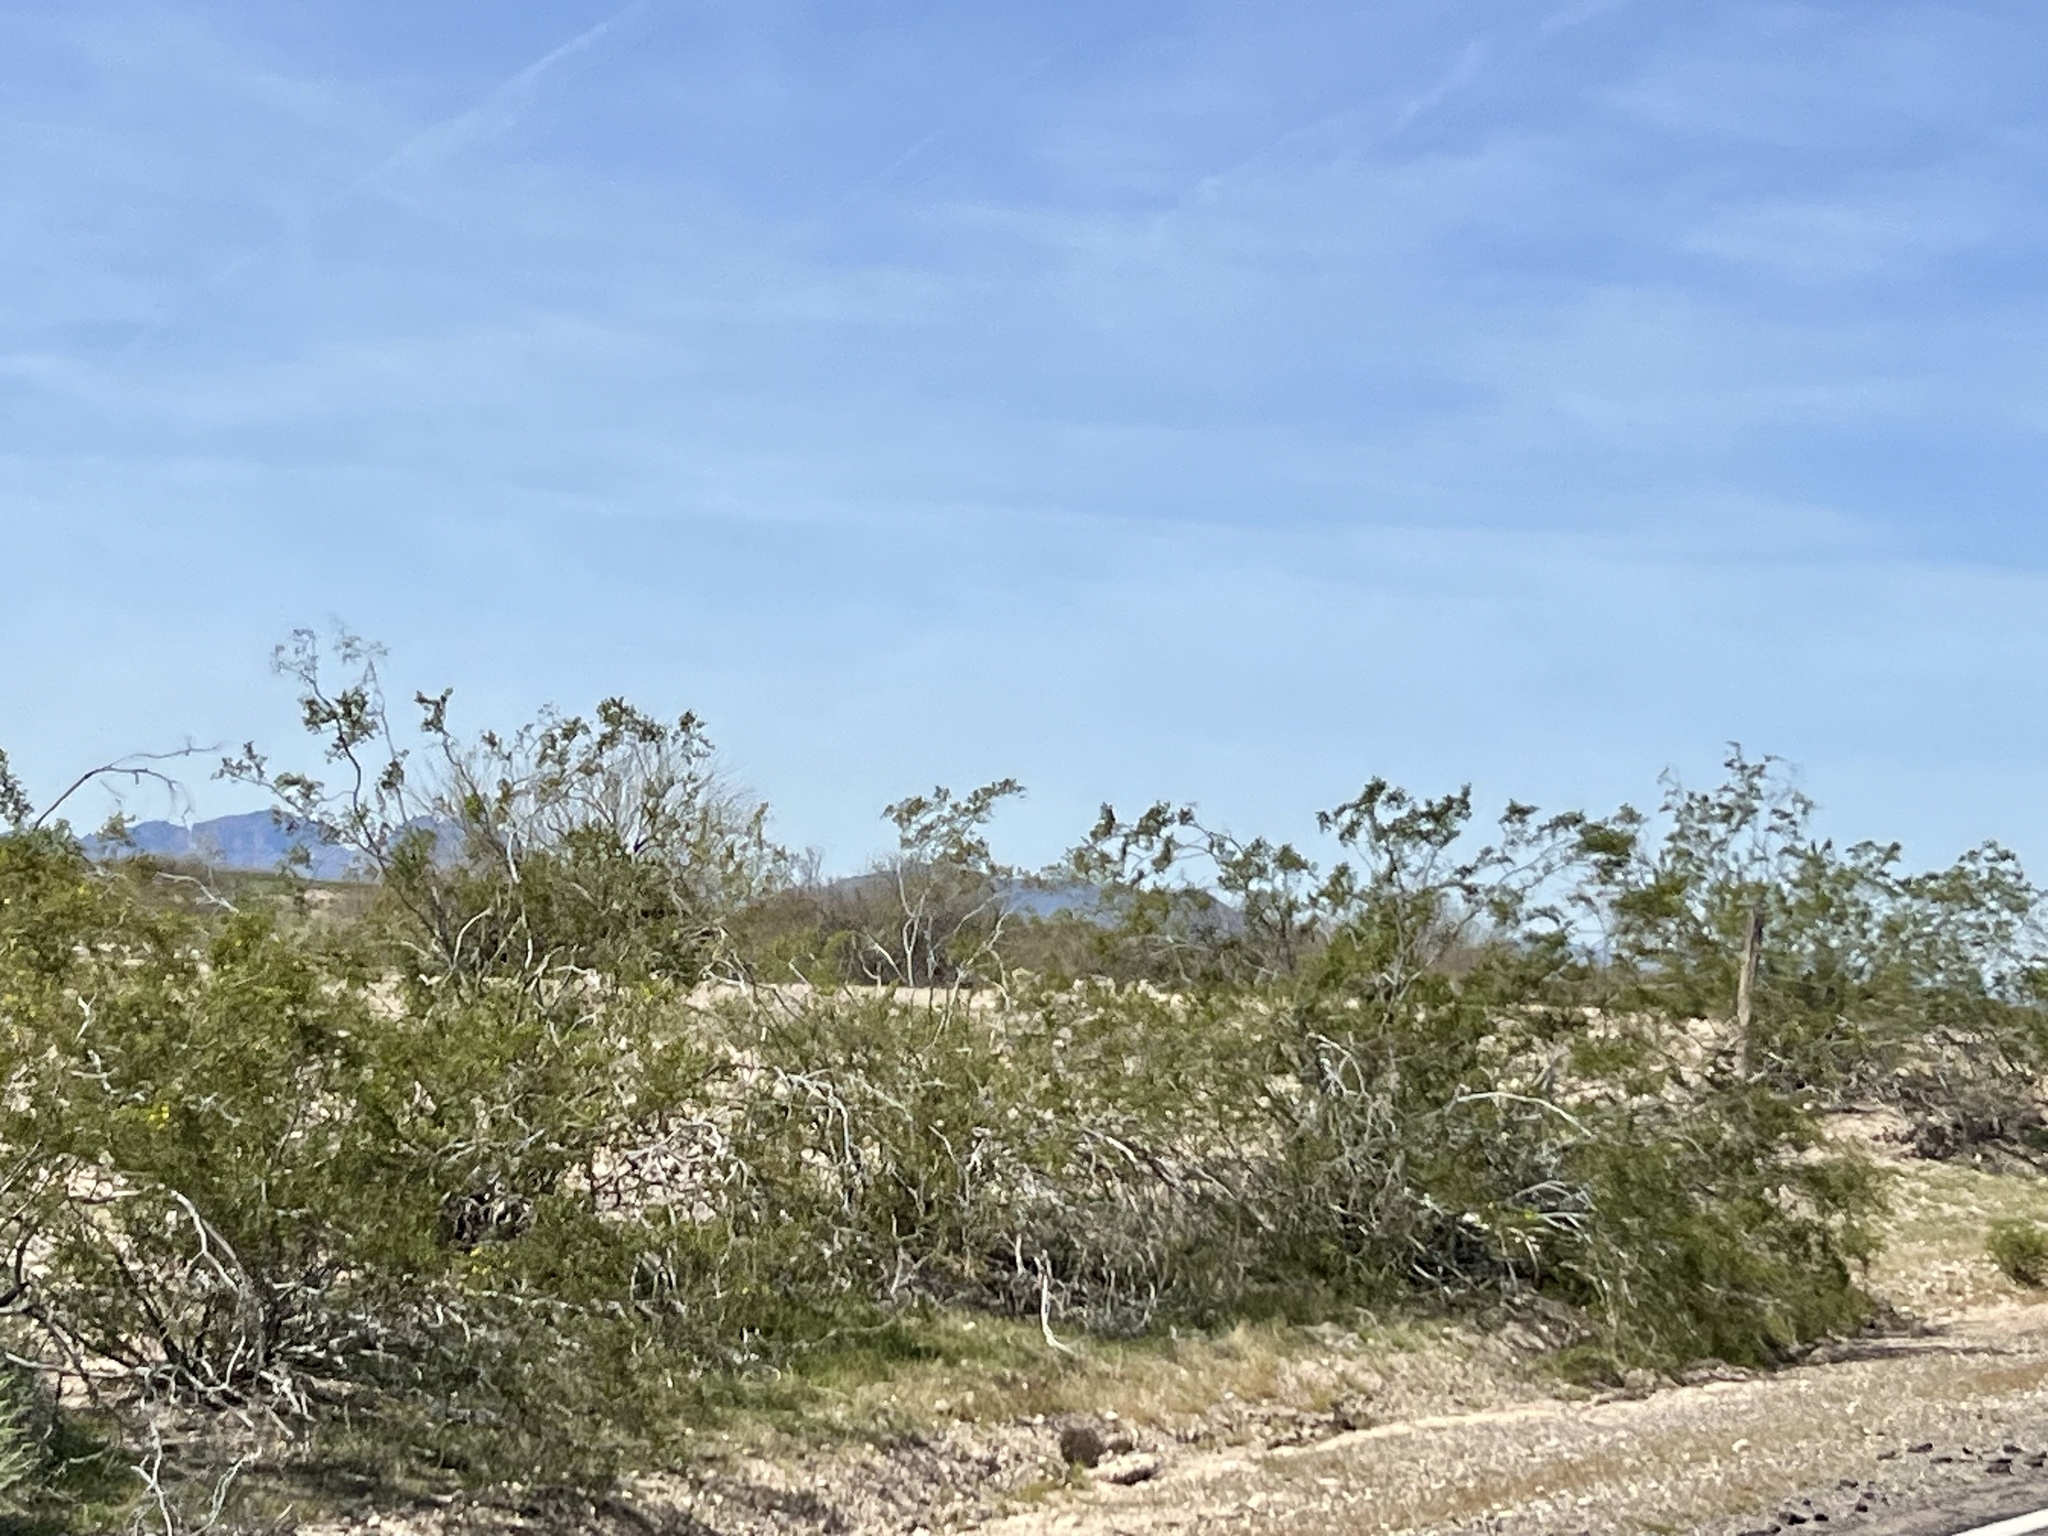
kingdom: Plantae
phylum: Tracheophyta
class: Magnoliopsida
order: Zygophyllales
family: Zygophyllaceae
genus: Larrea
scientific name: Larrea tridentata
